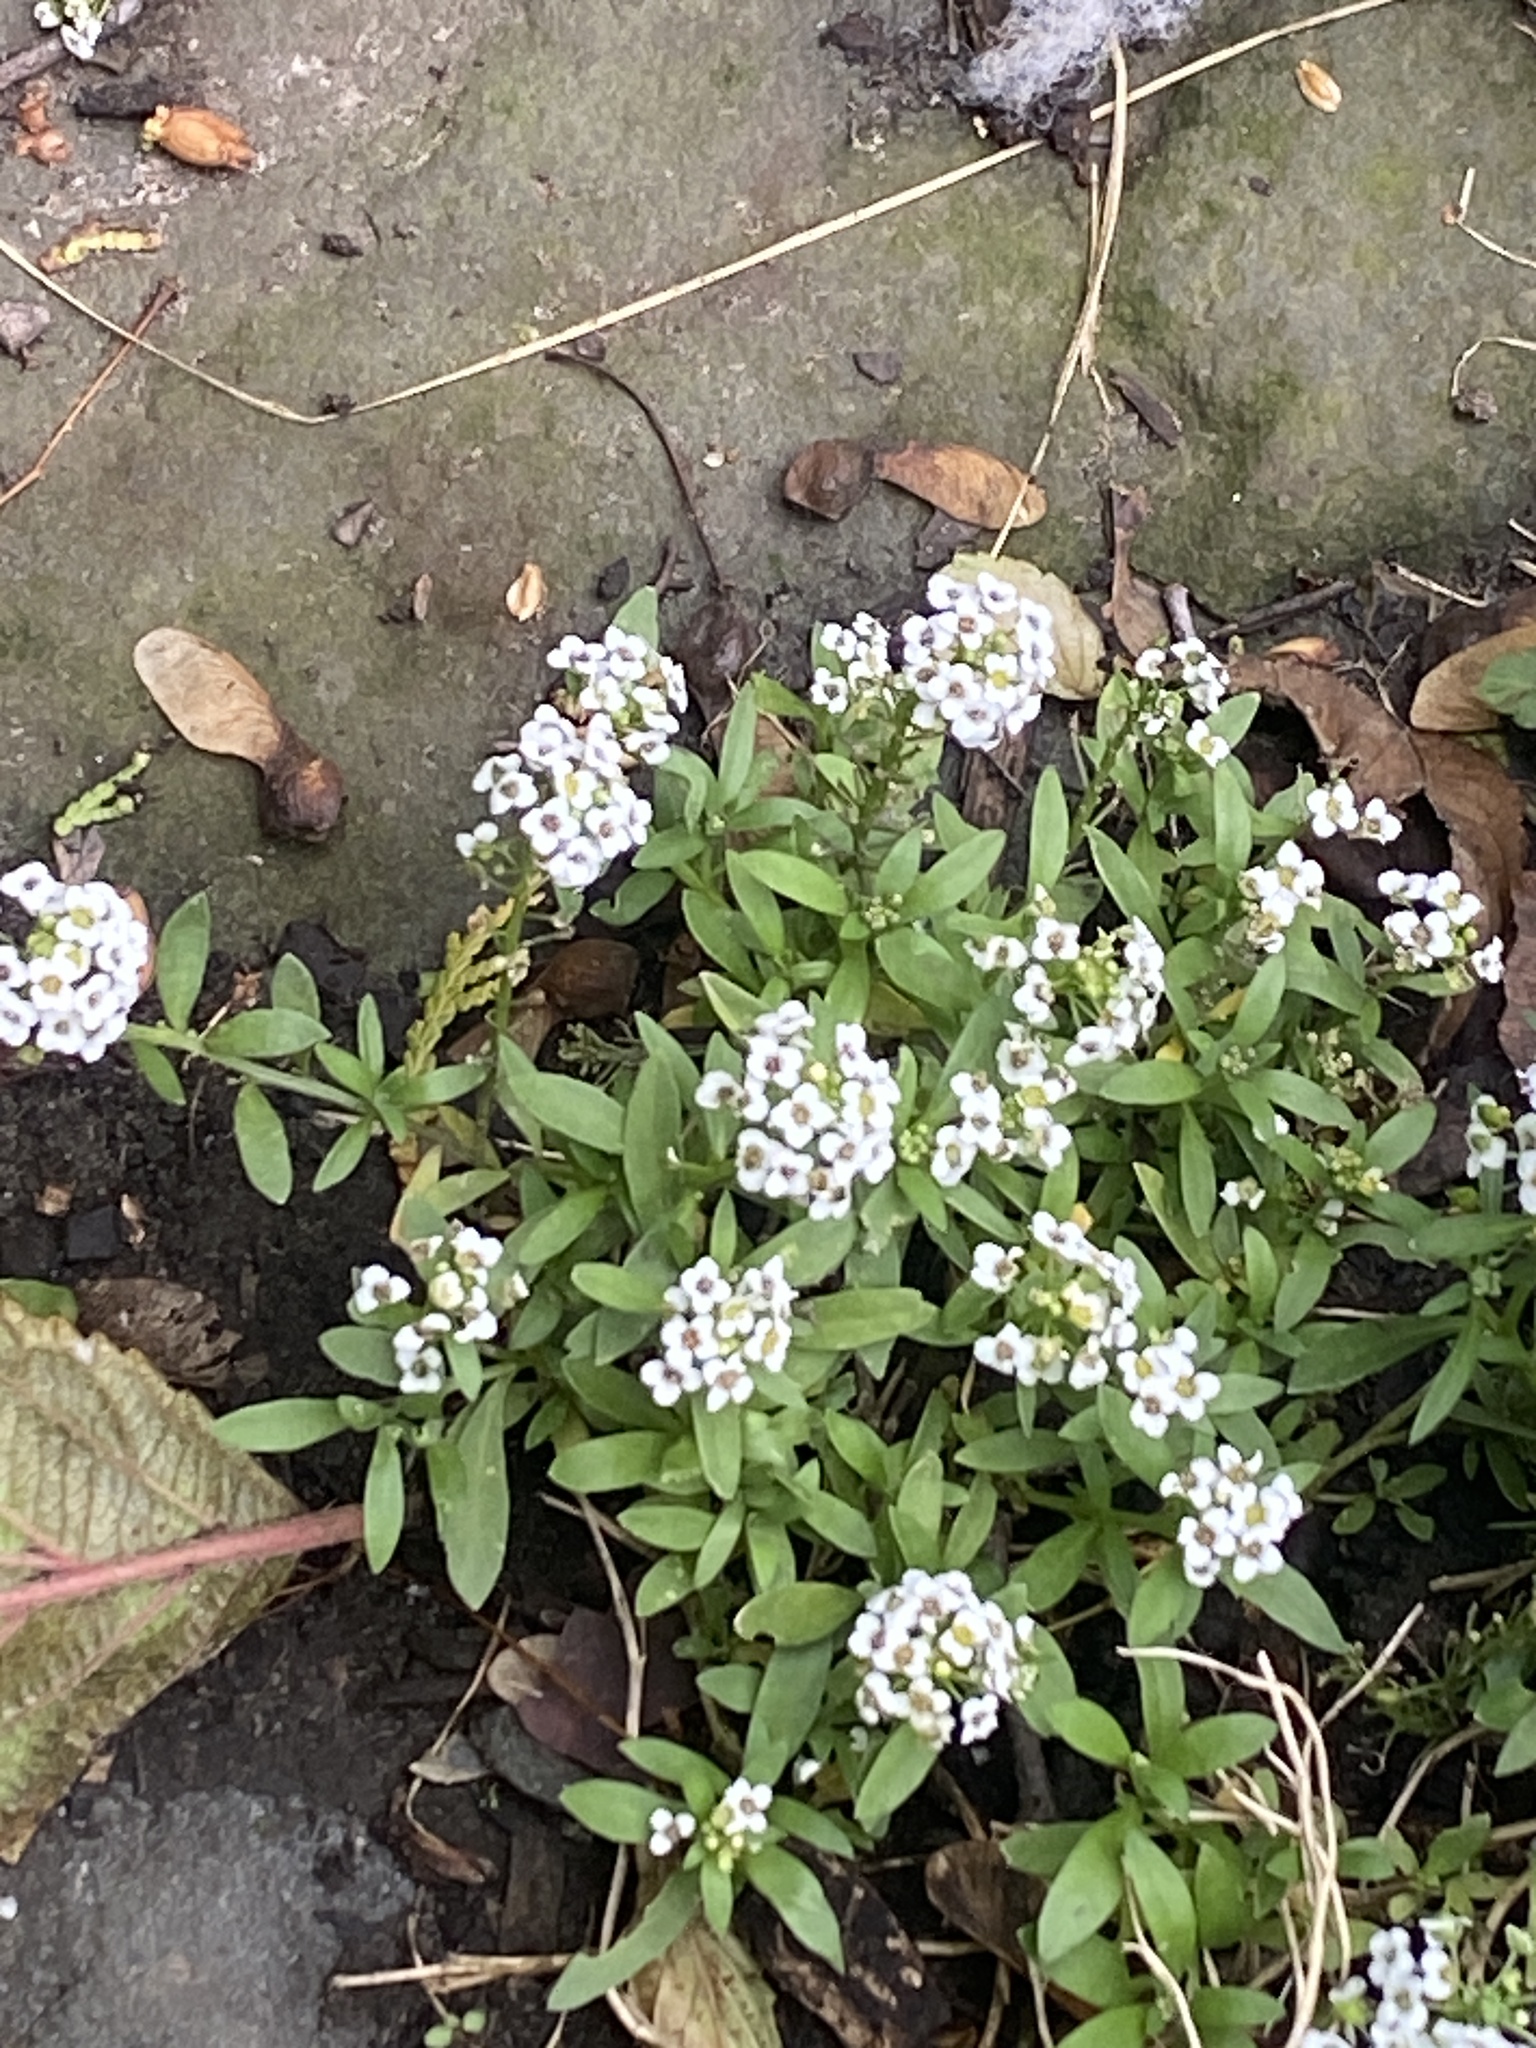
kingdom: Plantae
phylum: Tracheophyta
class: Magnoliopsida
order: Brassicales
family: Brassicaceae
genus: Lobularia
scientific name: Lobularia maritima
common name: Sweet alison
